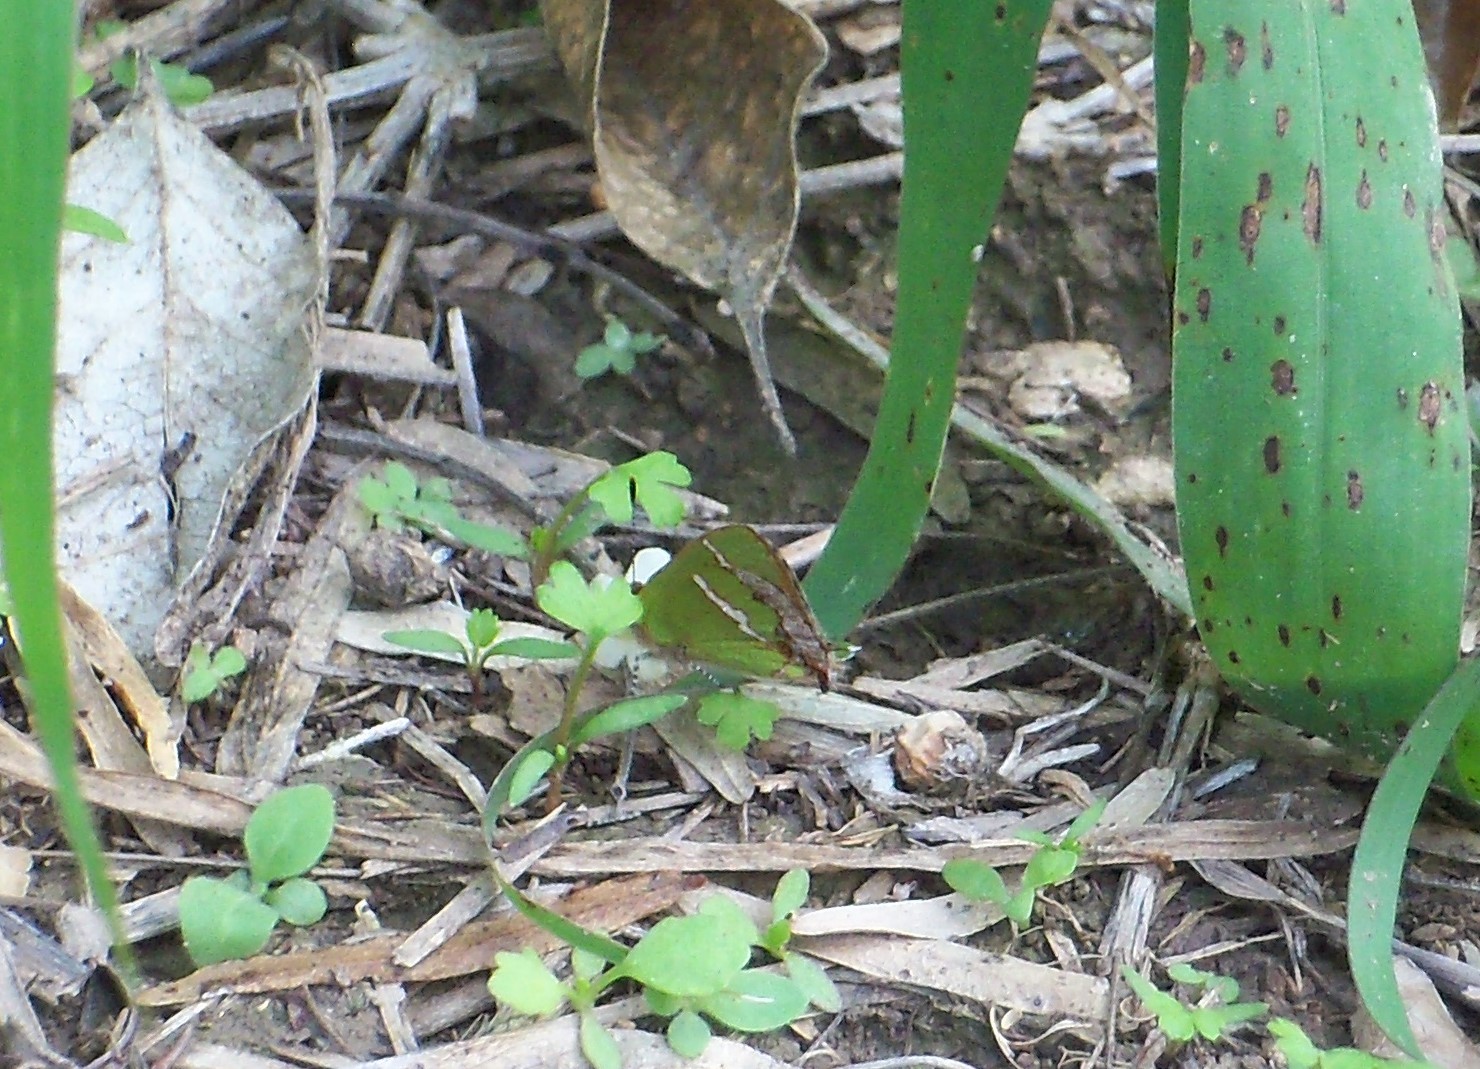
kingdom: Animalia
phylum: Arthropoda
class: Insecta
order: Lepidoptera
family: Lycaenidae
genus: Chlorostrymon
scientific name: Chlorostrymon simaethis
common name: Silver-banded hairstreak
